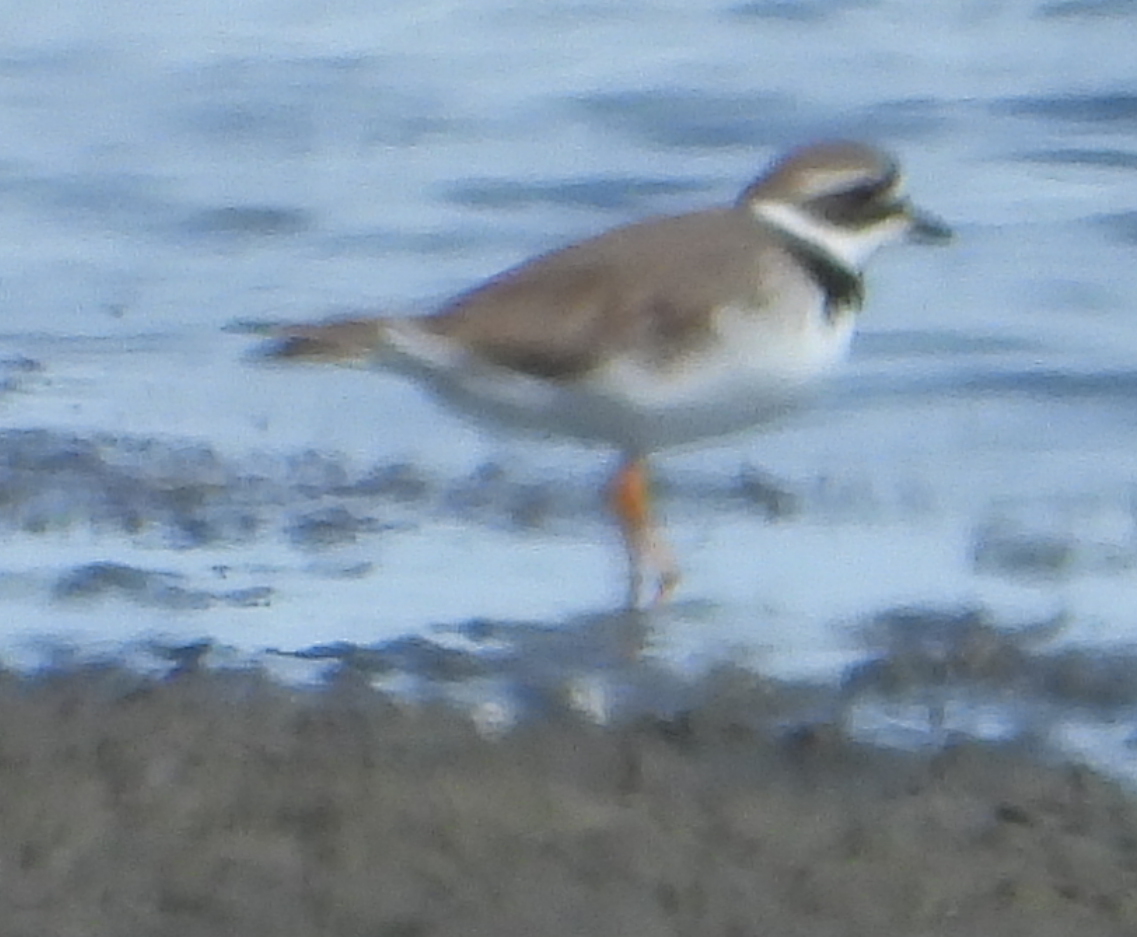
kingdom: Animalia
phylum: Chordata
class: Aves
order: Charadriiformes
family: Charadriidae
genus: Charadrius
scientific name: Charadrius hiaticula
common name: Common ringed plover
